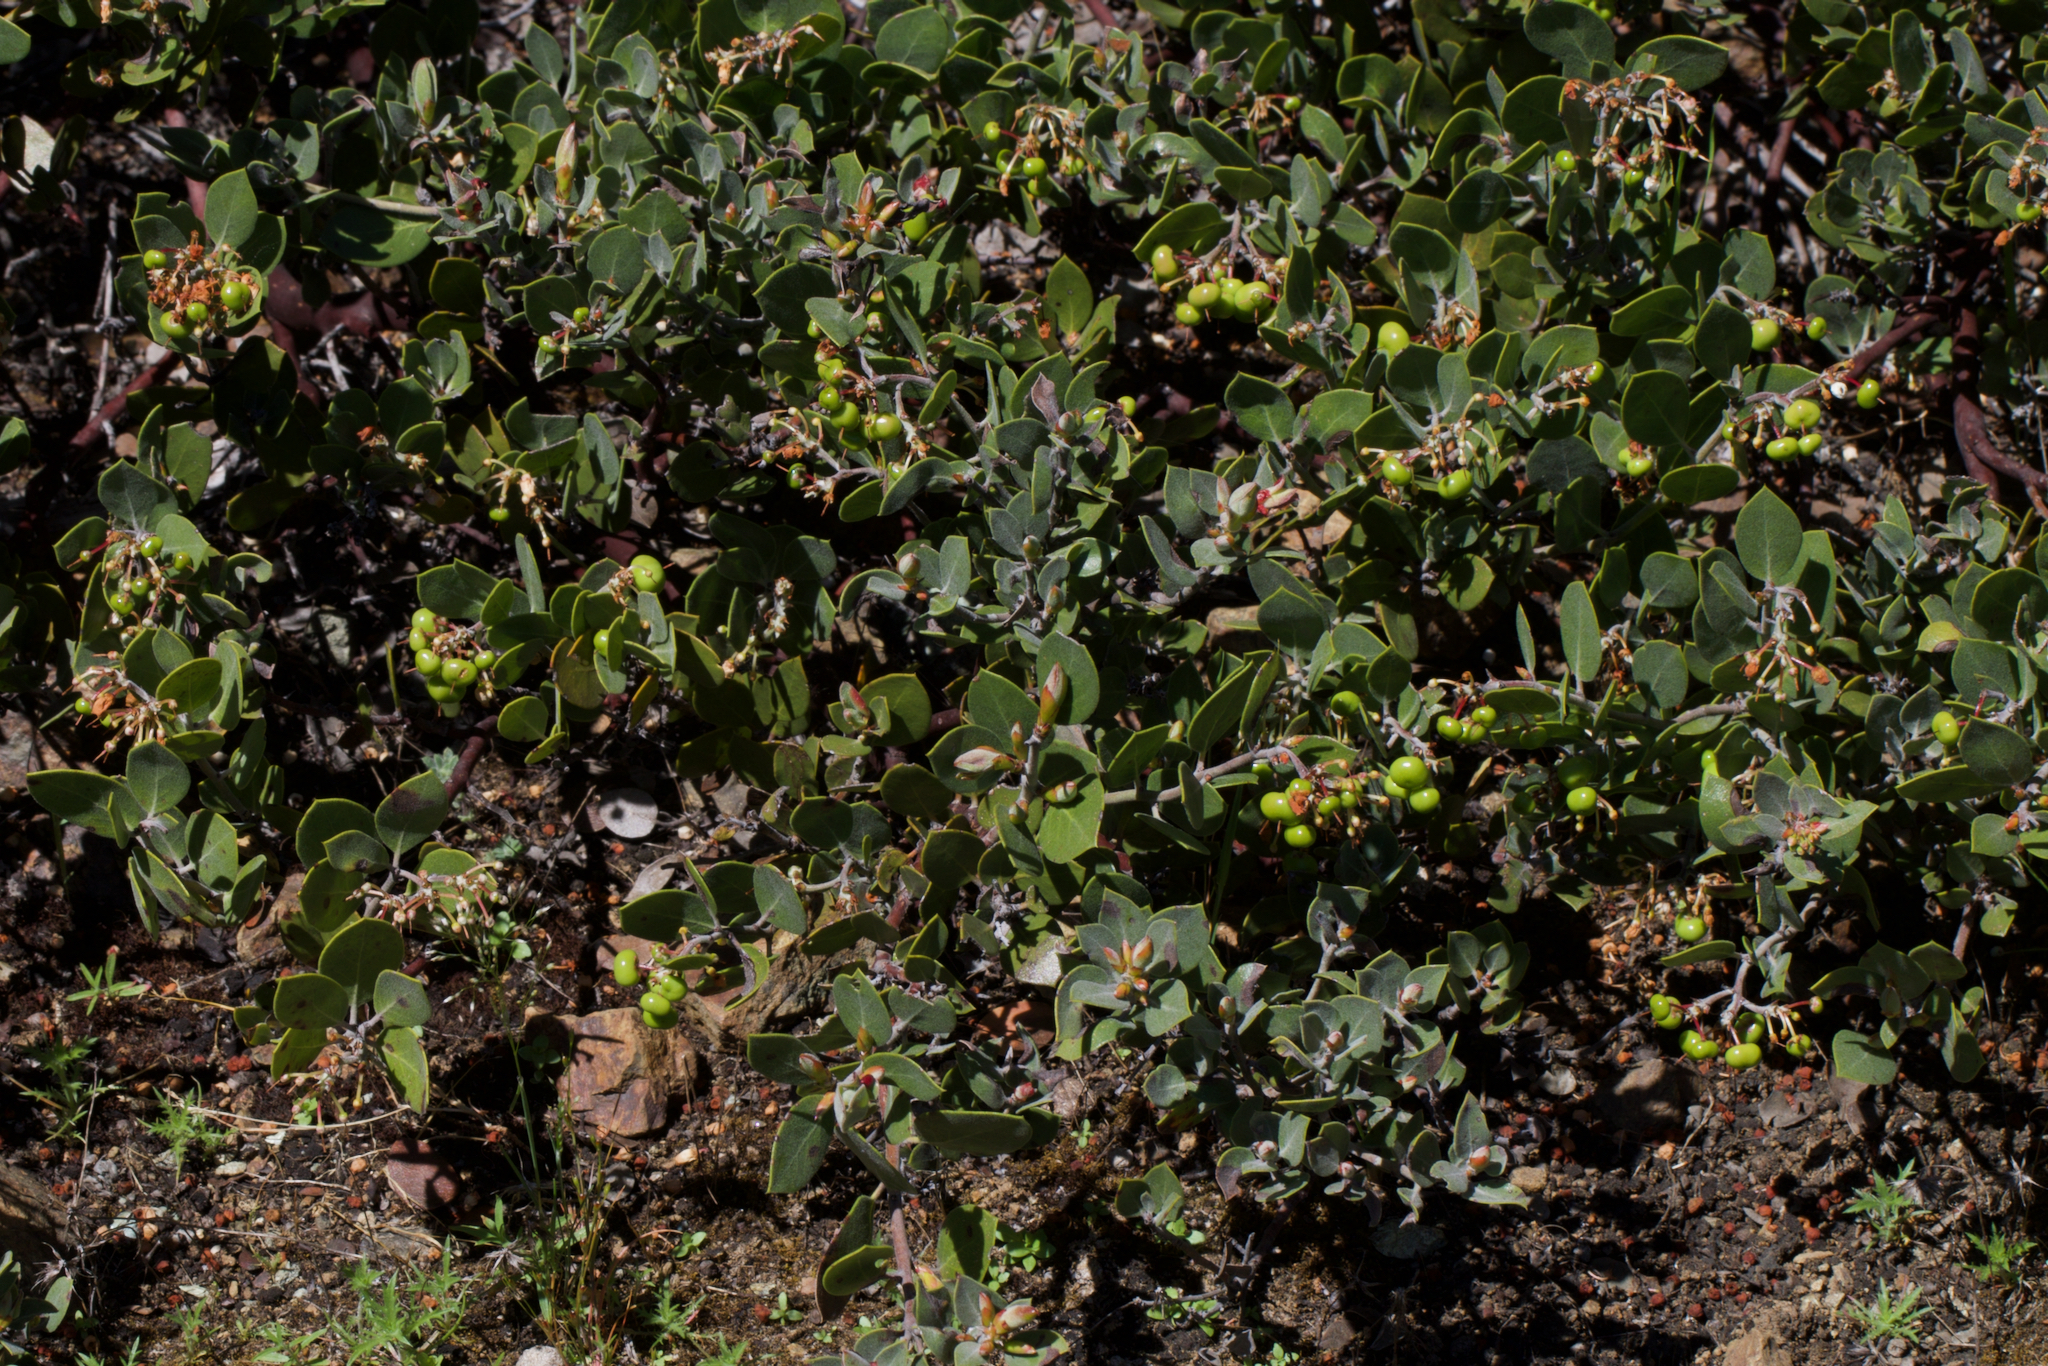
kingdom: Plantae
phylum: Tracheophyta
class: Magnoliopsida
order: Ericales
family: Ericaceae
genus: Arctostaphylos
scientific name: Arctostaphylos montana
